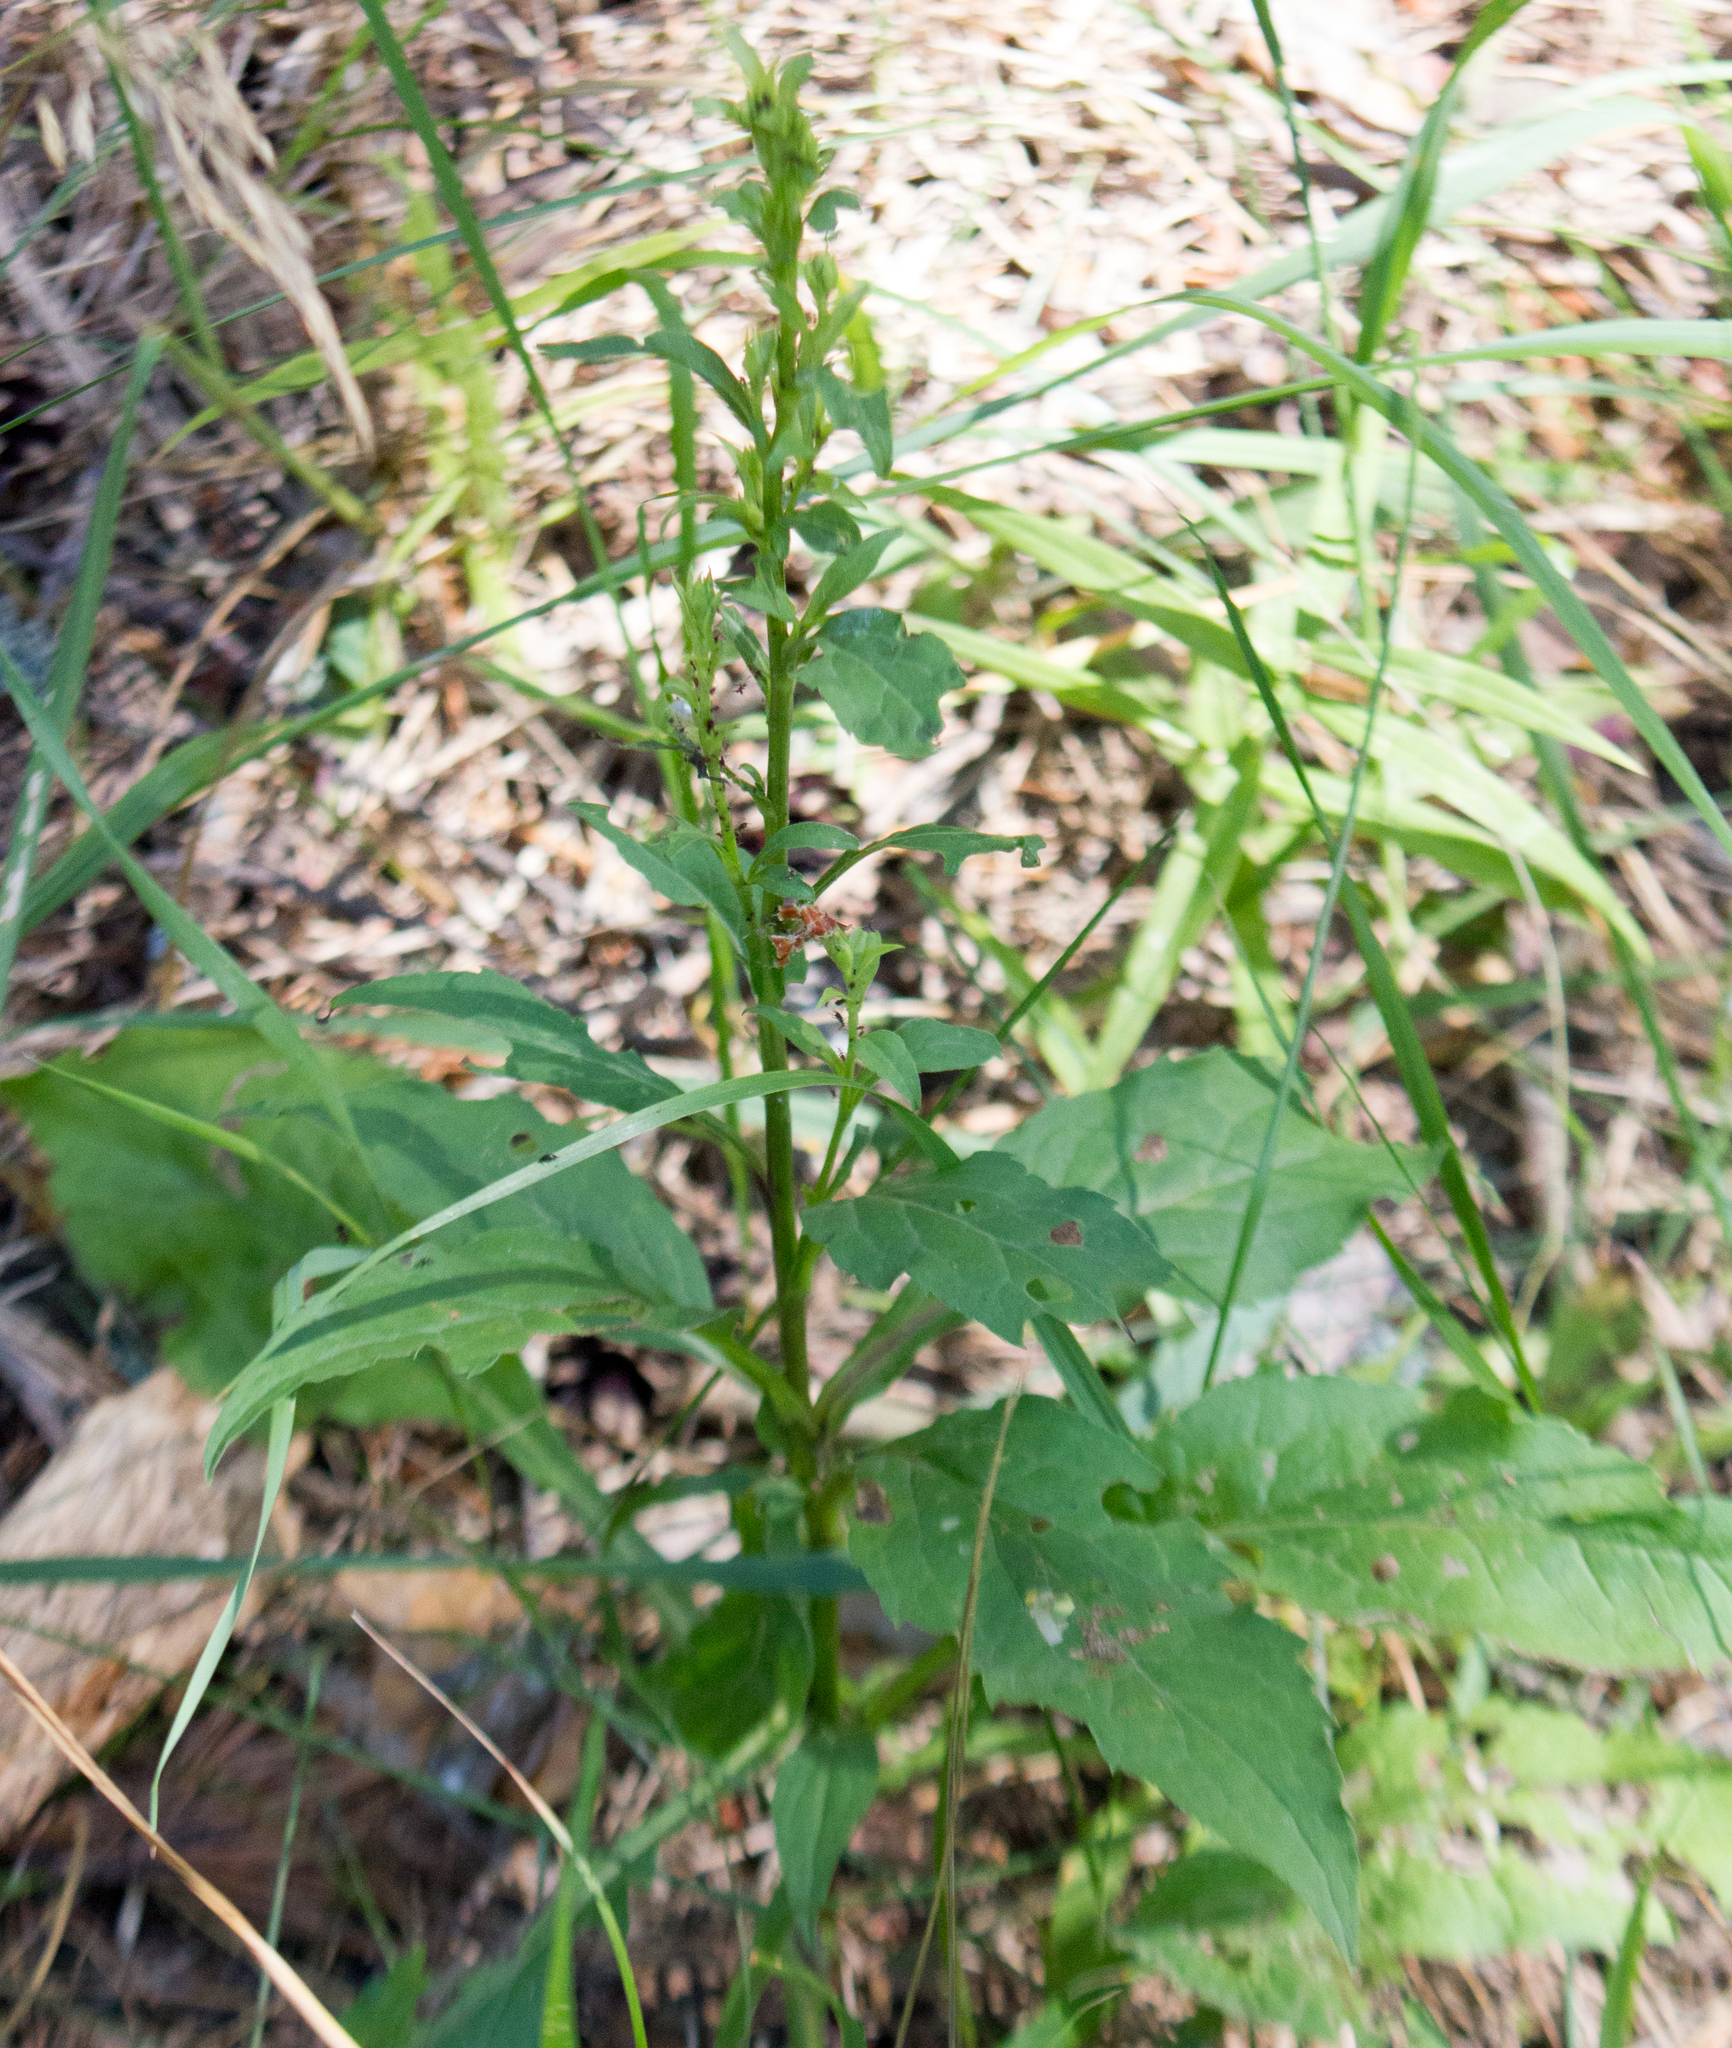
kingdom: Plantae
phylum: Tracheophyta
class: Magnoliopsida
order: Asterales
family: Asteraceae
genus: Solidago
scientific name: Solidago virgaurea
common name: Goldenrod
